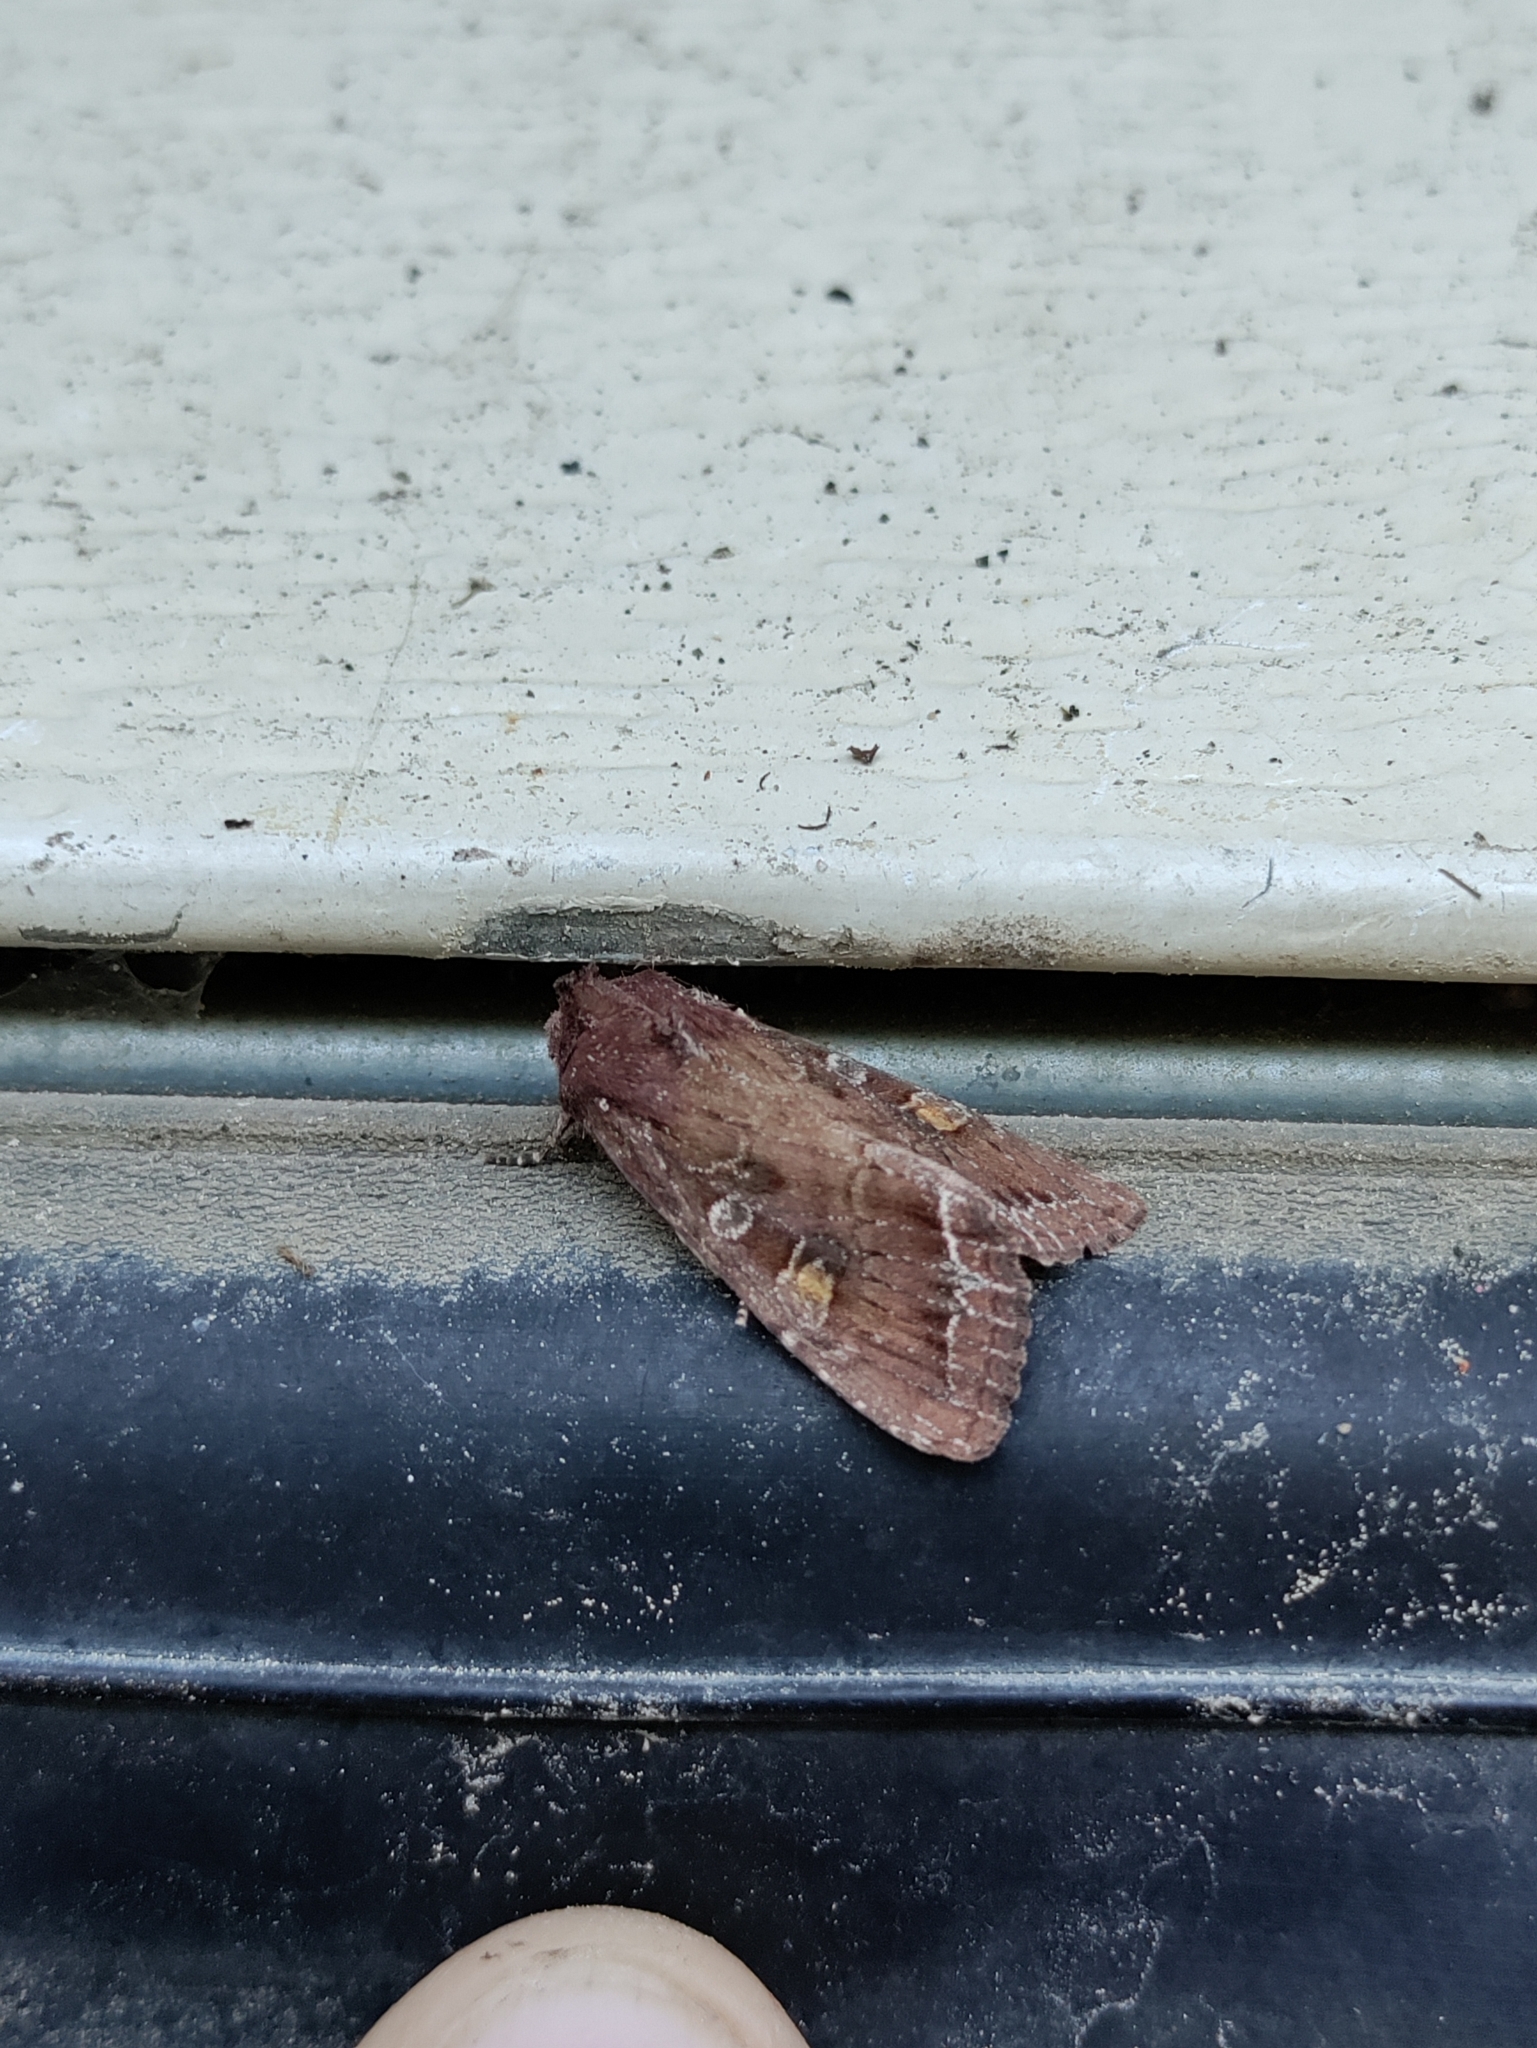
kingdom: Animalia
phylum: Arthropoda
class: Insecta
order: Lepidoptera
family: Noctuidae
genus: Lacanobia
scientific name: Lacanobia oleracea
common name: Bright-line brown-eye
